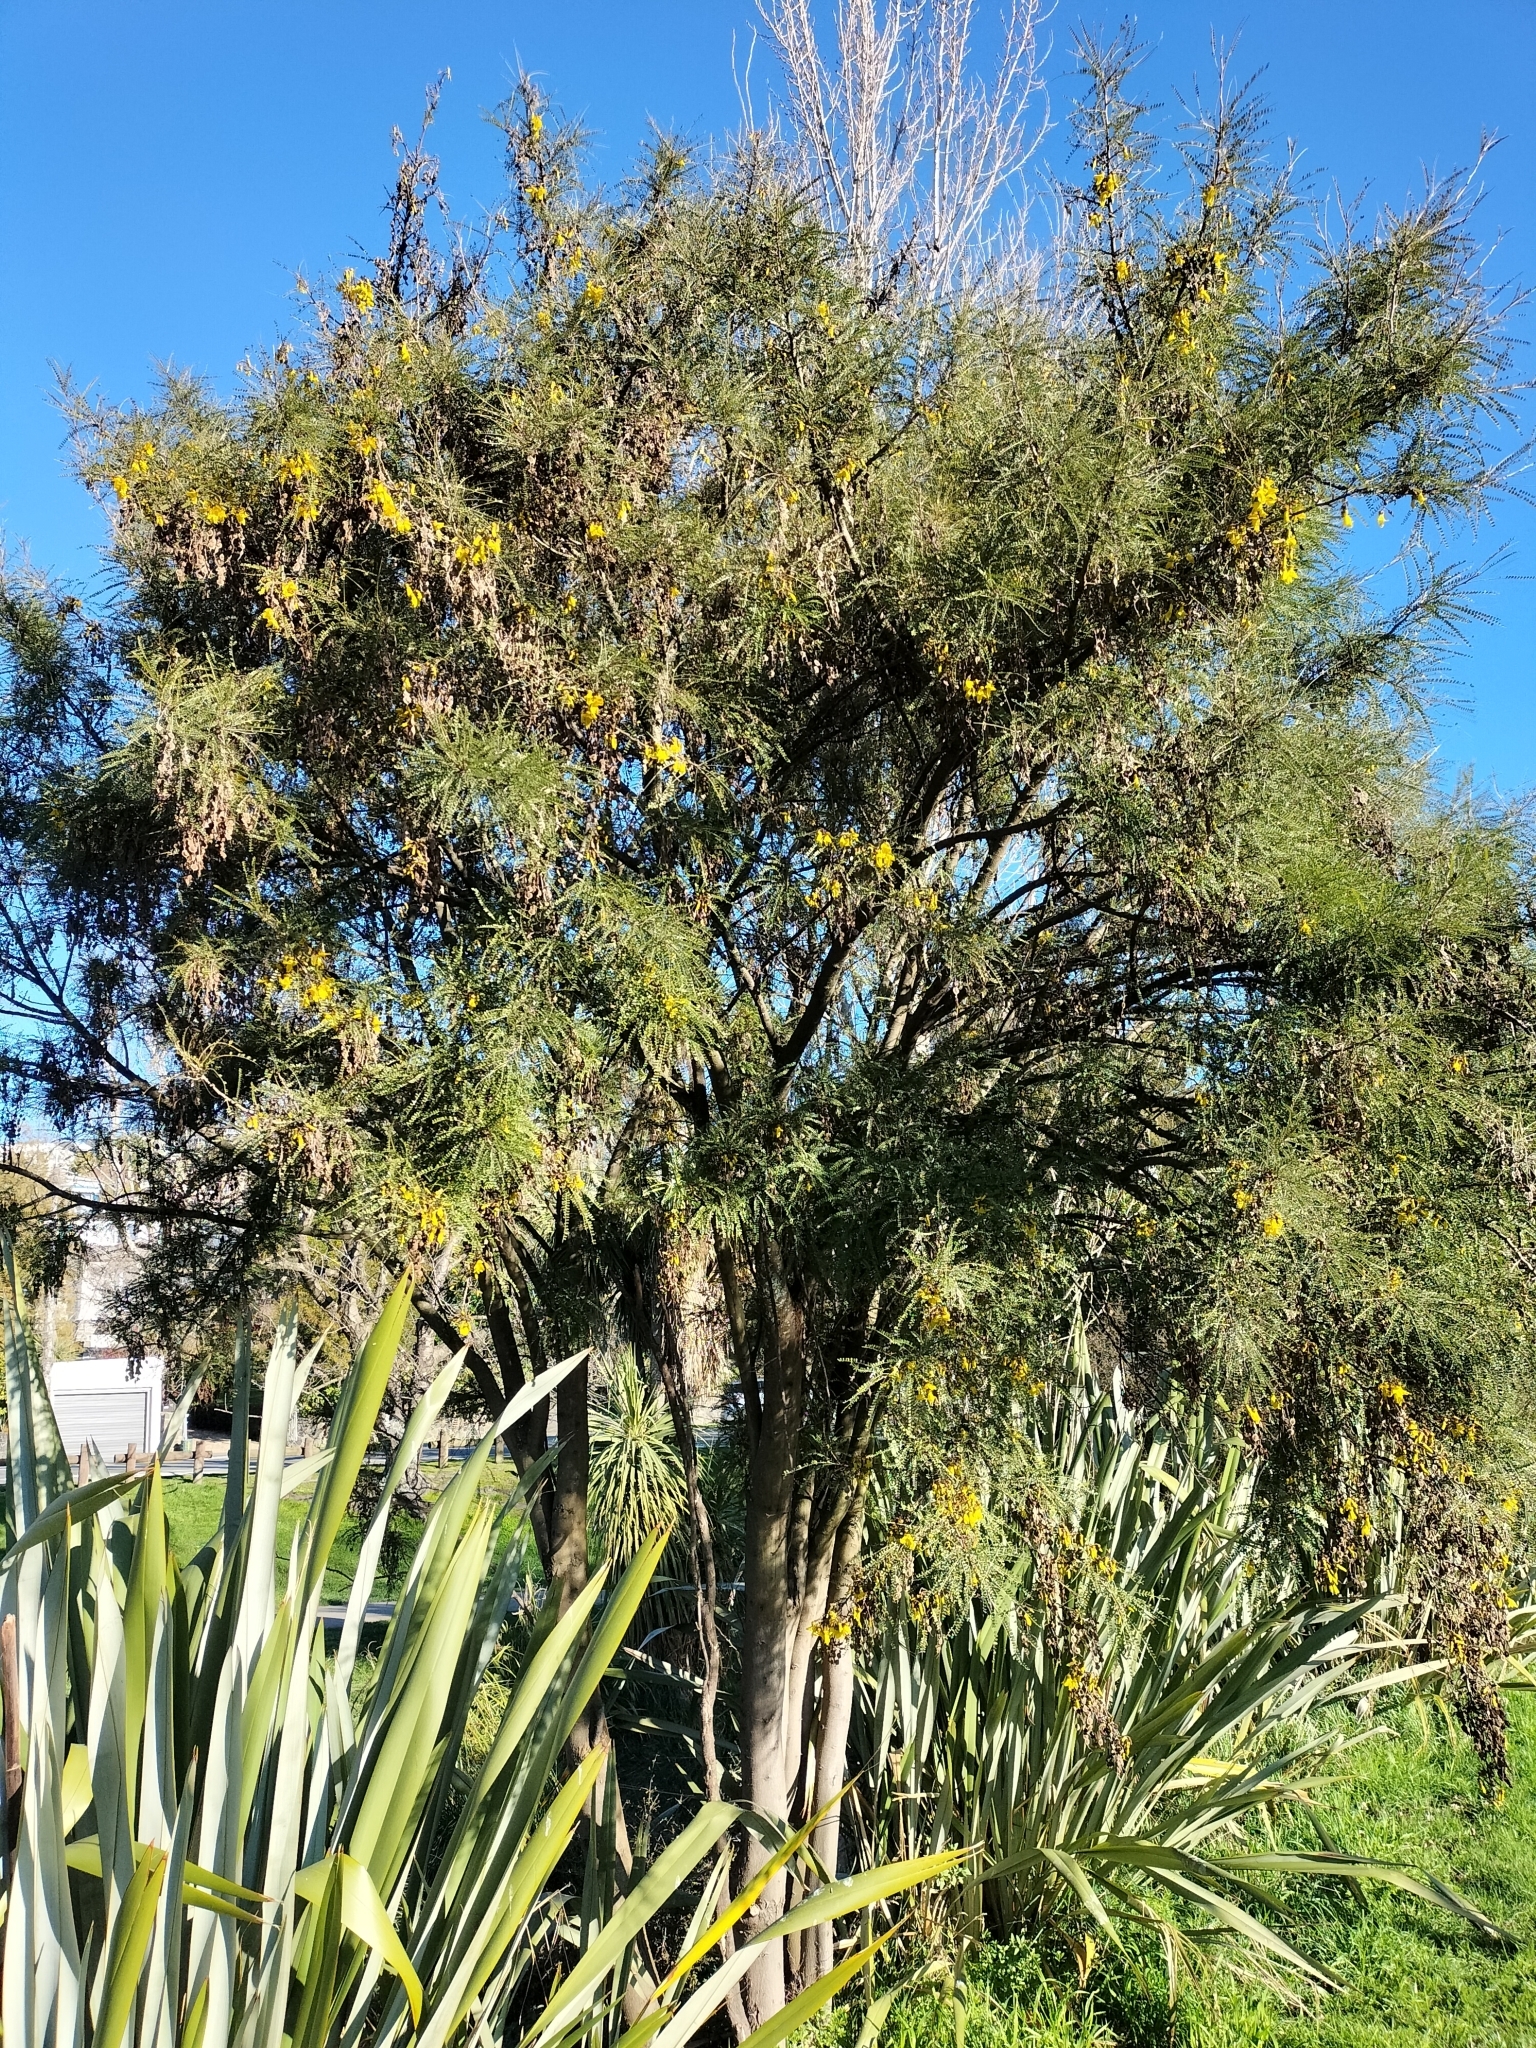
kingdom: Plantae
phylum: Tracheophyta
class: Magnoliopsida
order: Fabales
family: Fabaceae
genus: Sophora
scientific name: Sophora microphylla
